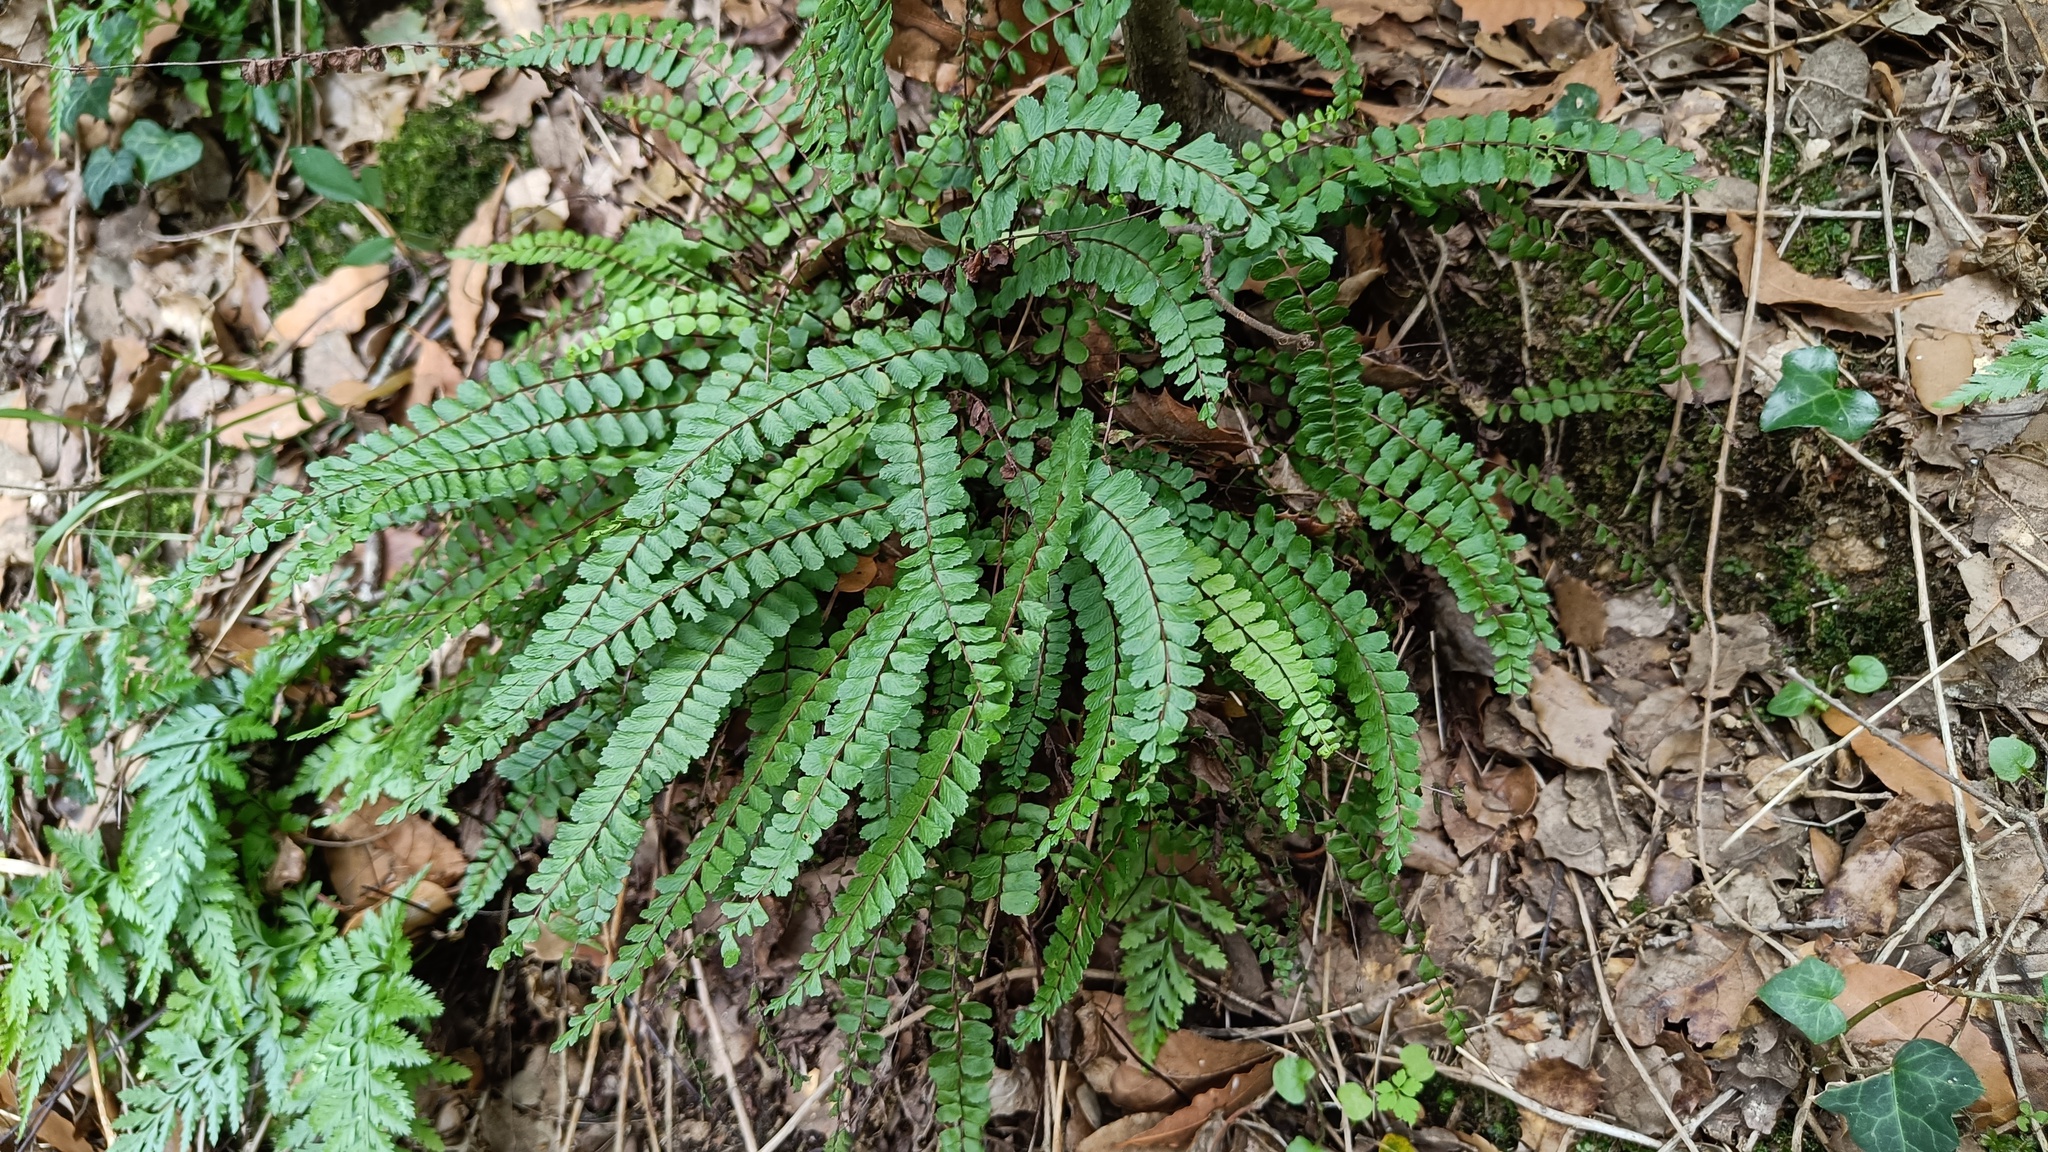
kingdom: Plantae
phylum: Tracheophyta
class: Polypodiopsida
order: Polypodiales
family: Aspleniaceae
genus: Asplenium
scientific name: Asplenium trichomanes
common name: Maidenhair spleenwort
